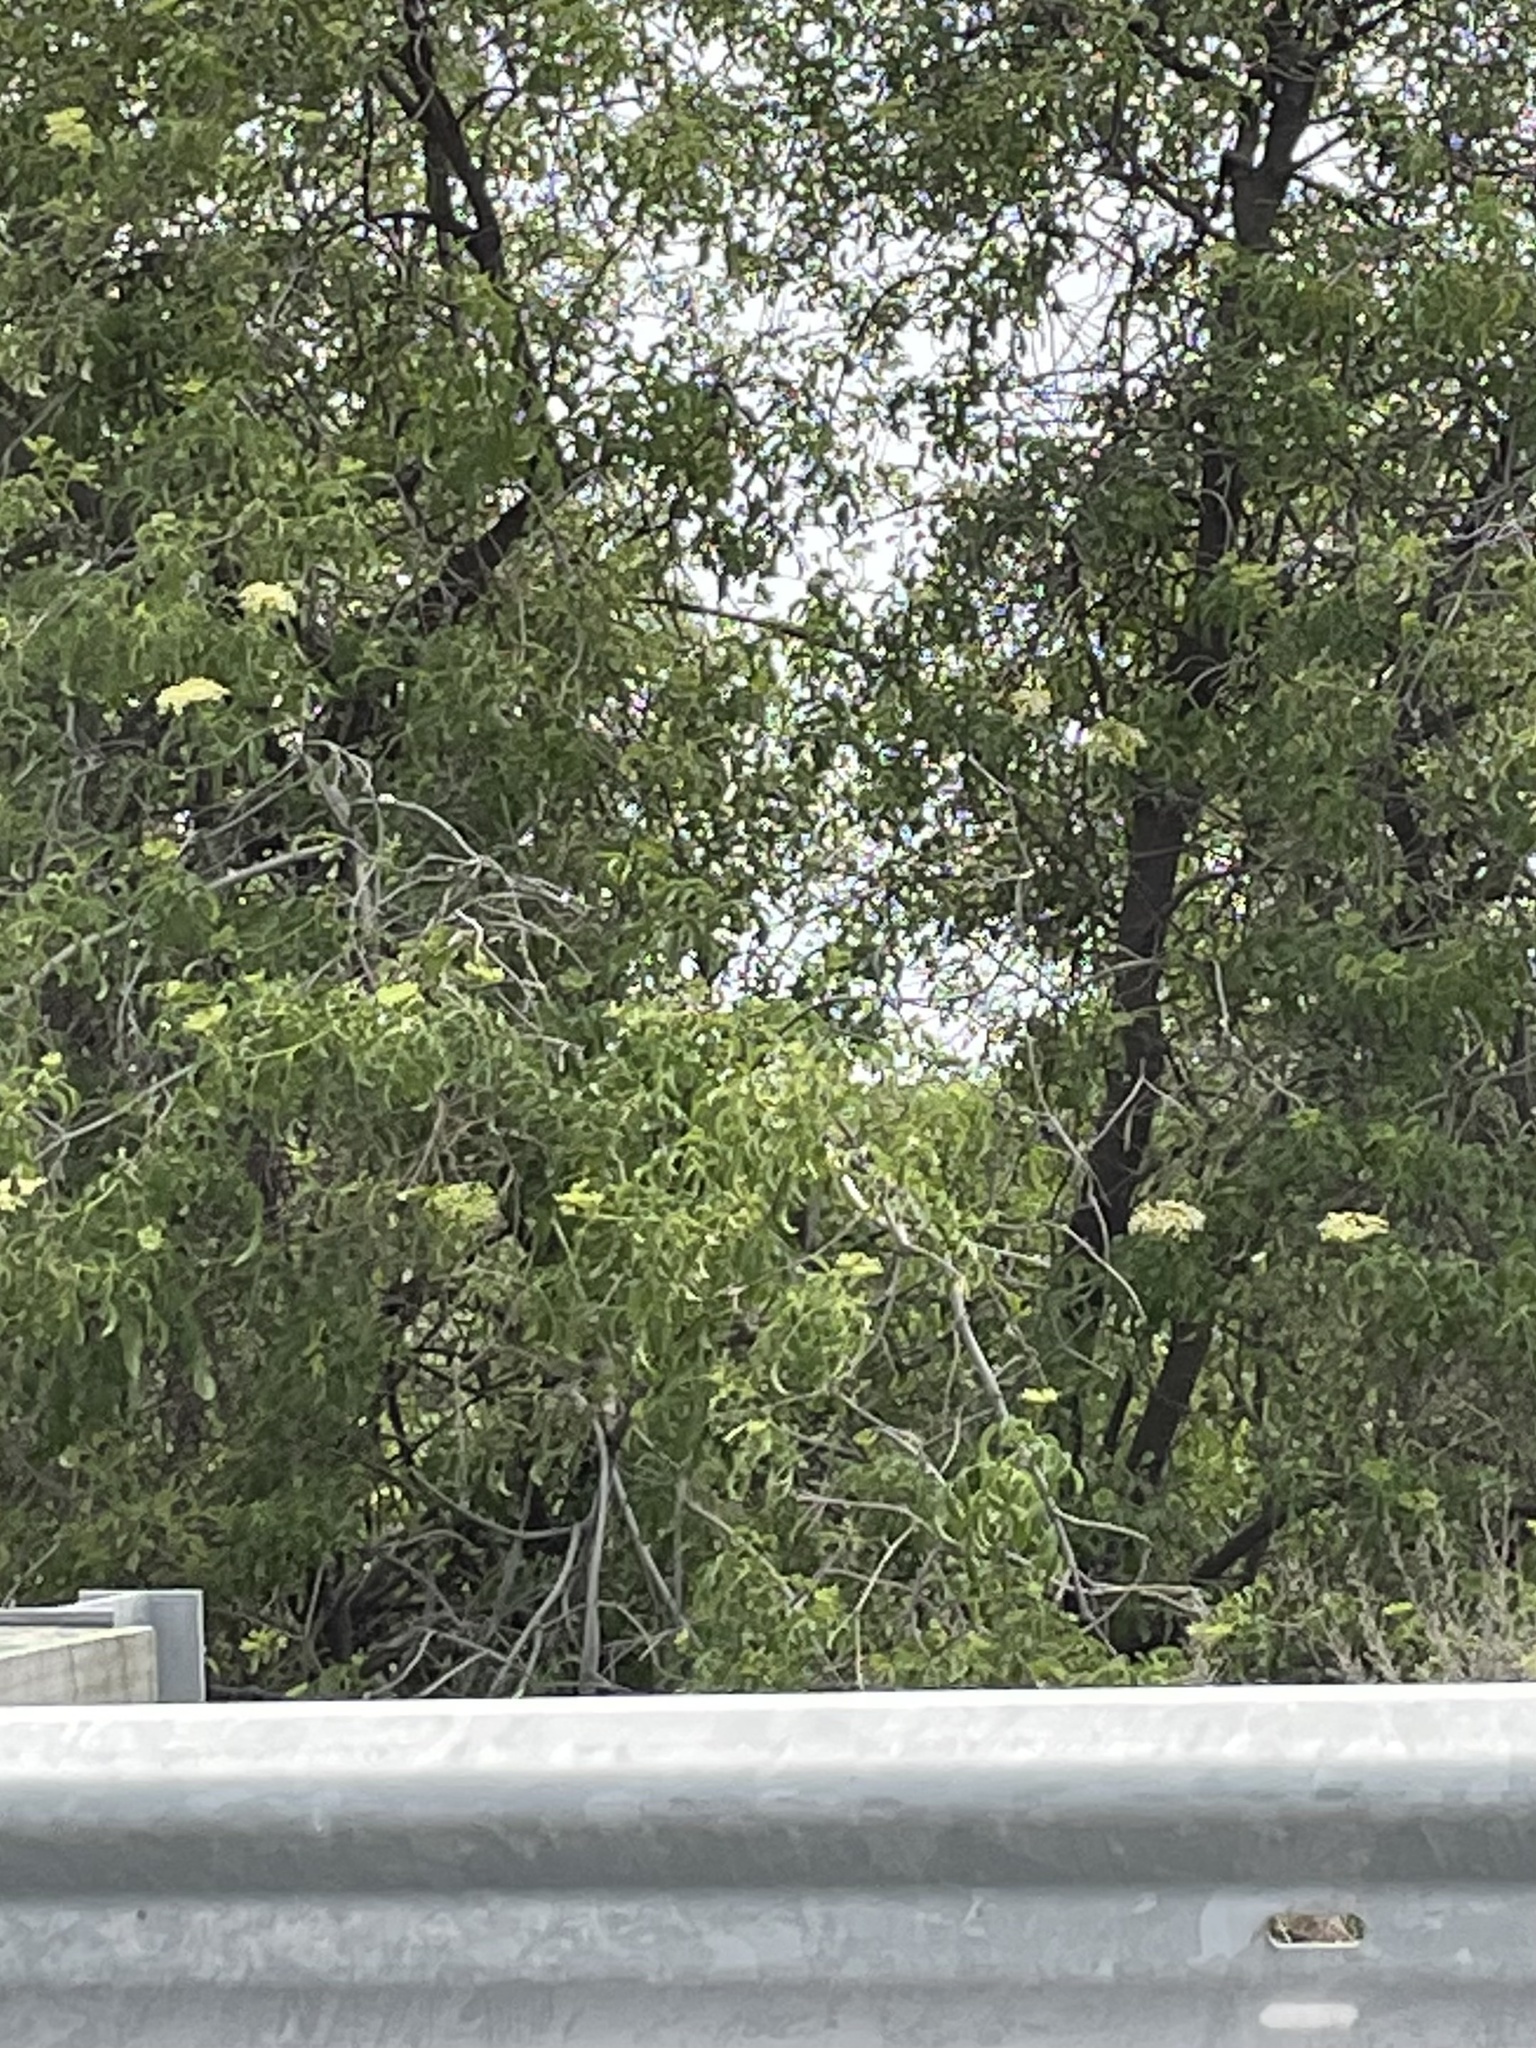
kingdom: Plantae
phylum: Tracheophyta
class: Magnoliopsida
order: Dipsacales
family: Viburnaceae
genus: Sambucus
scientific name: Sambucus cerulea
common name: Blue elder
